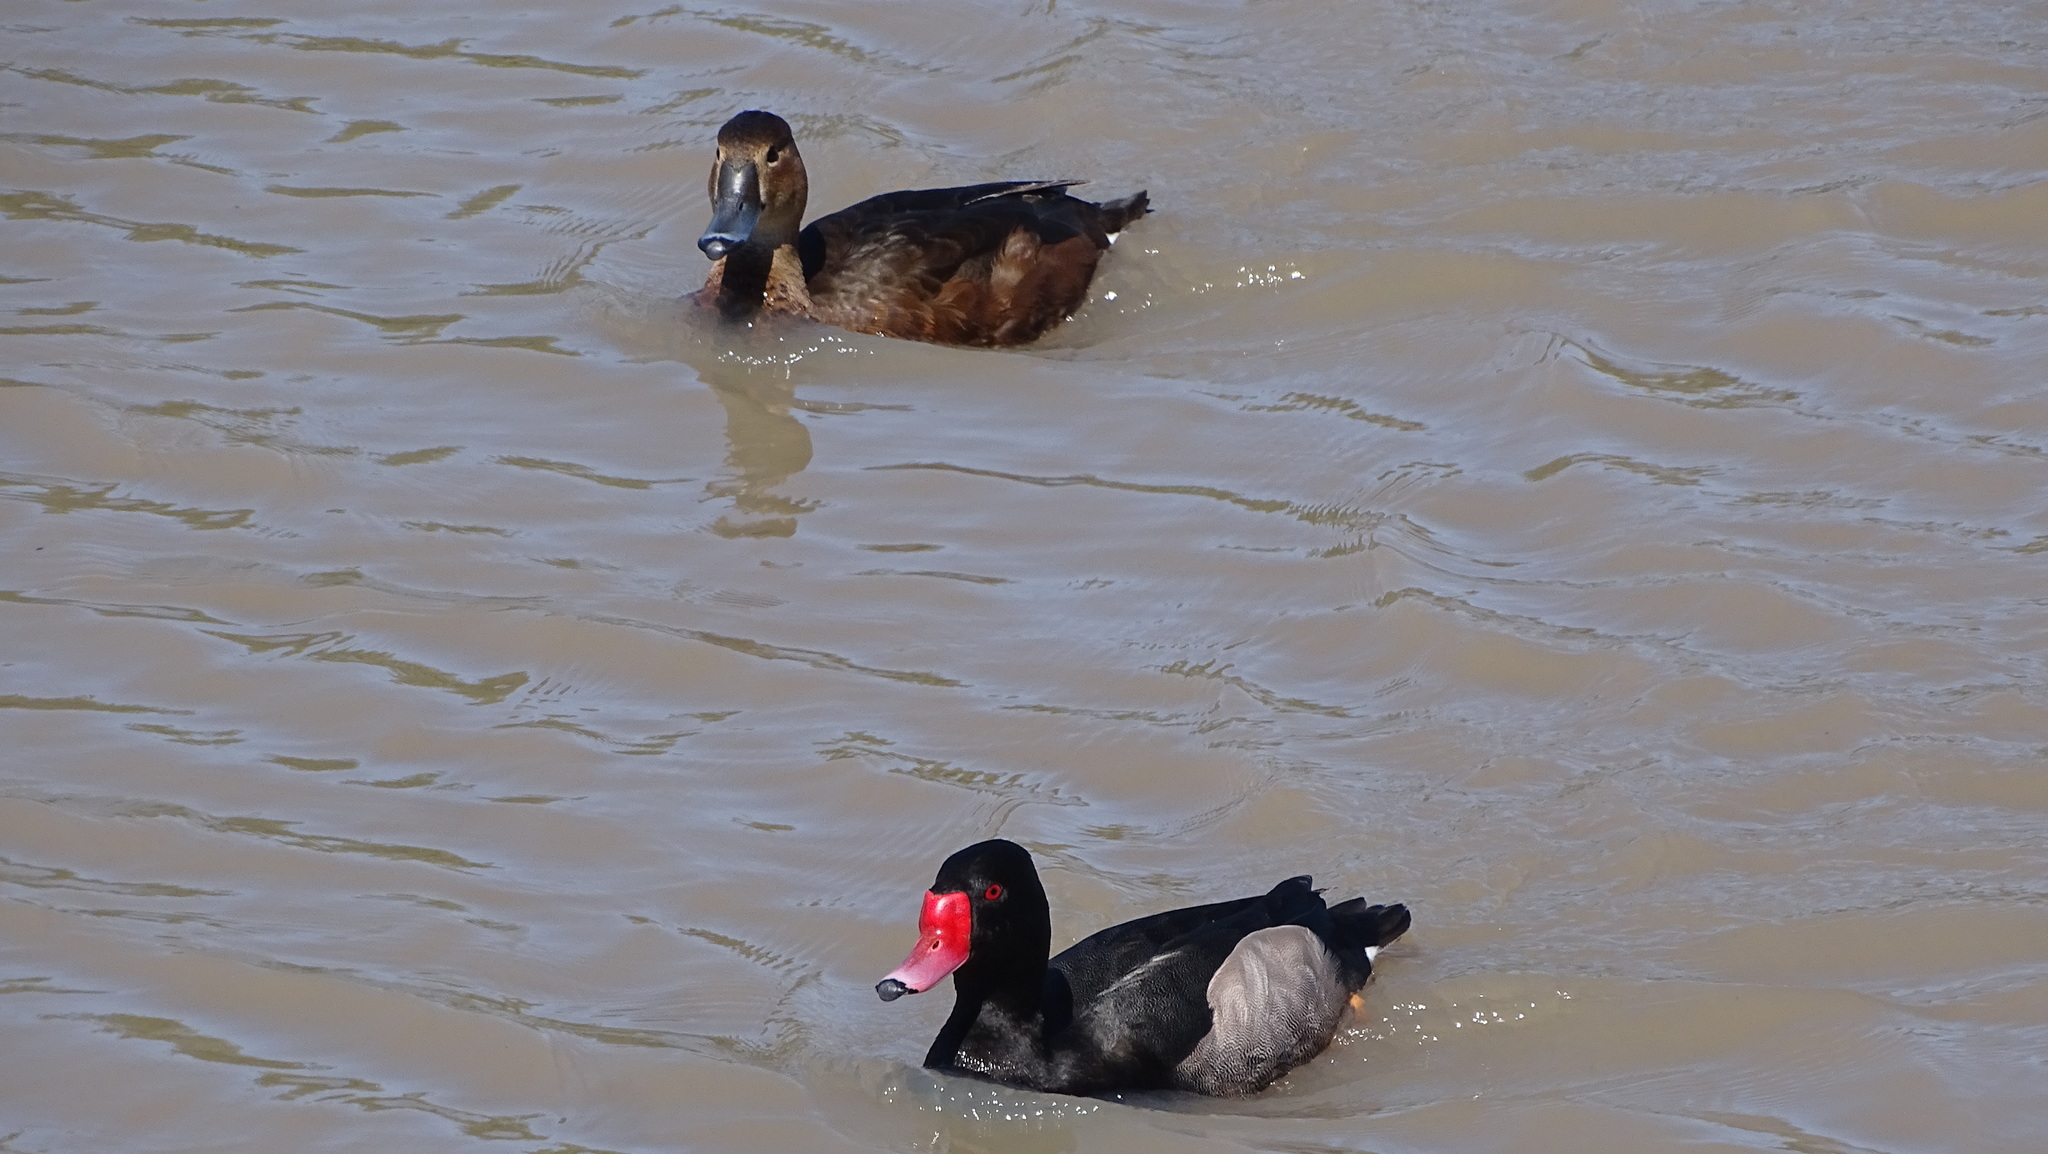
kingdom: Animalia
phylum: Chordata
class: Aves
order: Anseriformes
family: Anatidae
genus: Netta
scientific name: Netta peposaca
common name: Rosy-billed pochard
